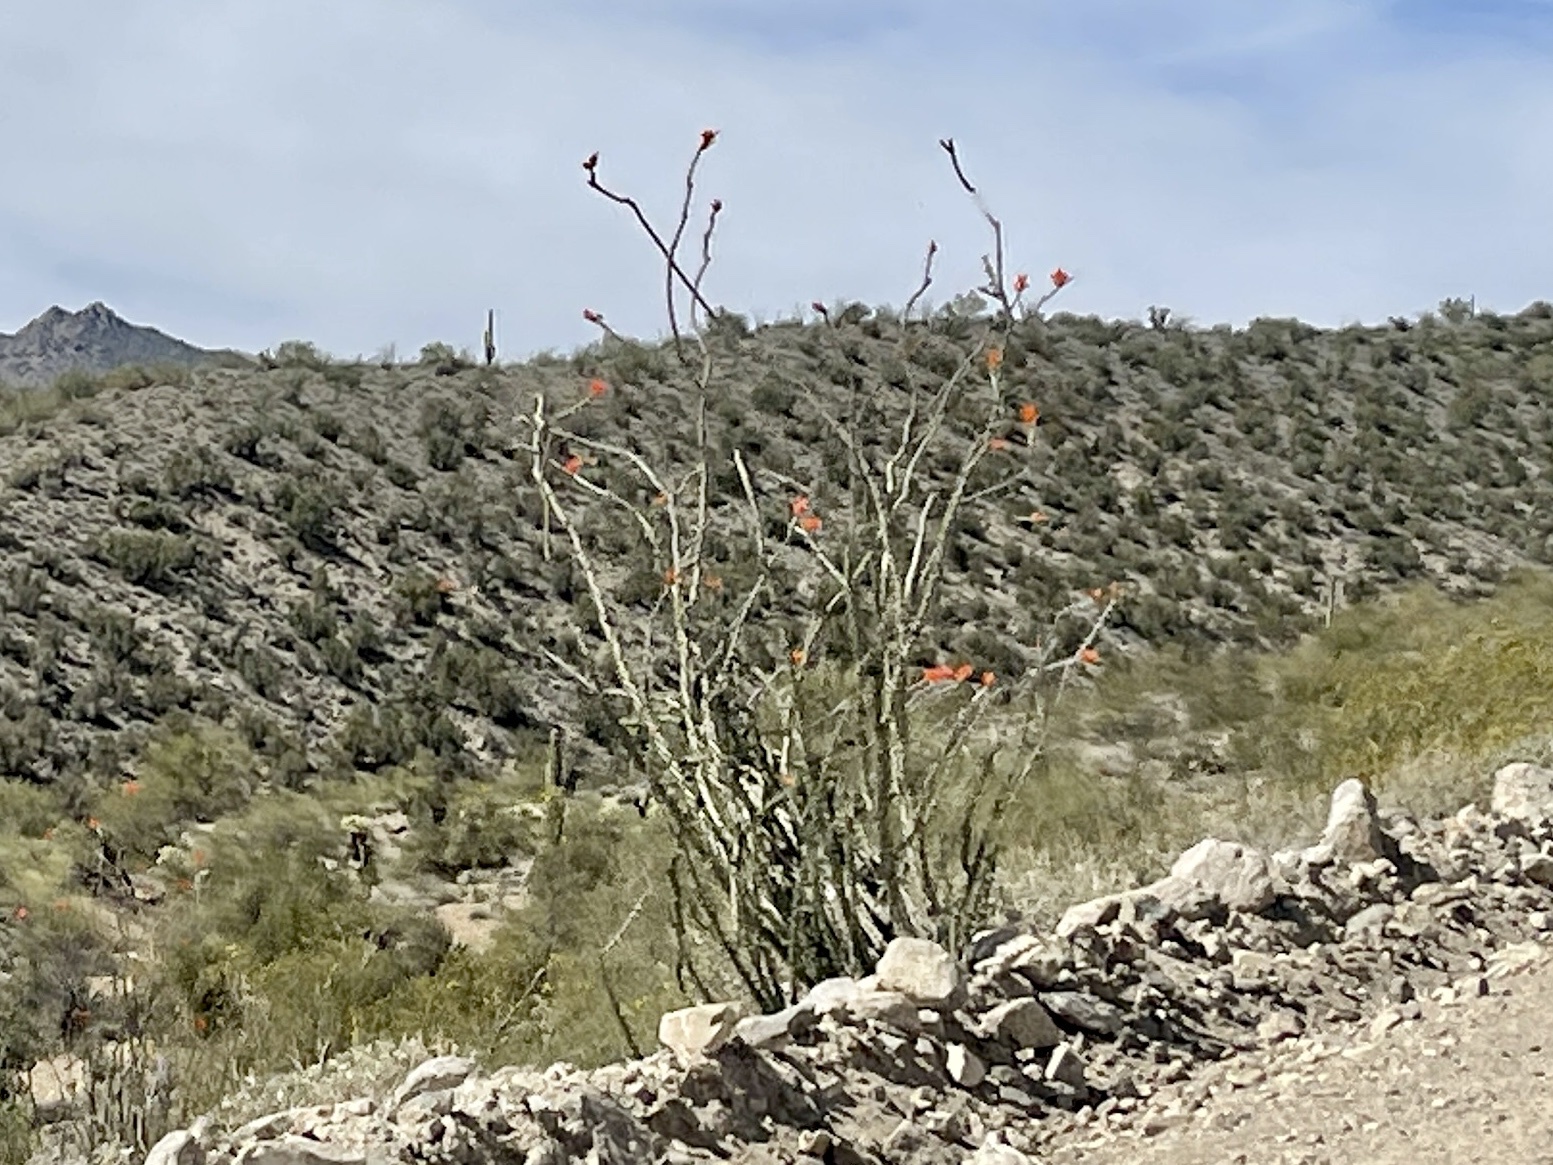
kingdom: Plantae
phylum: Tracheophyta
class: Magnoliopsida
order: Ericales
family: Fouquieriaceae
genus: Fouquieria
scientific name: Fouquieria splendens
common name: Vine-cactus
